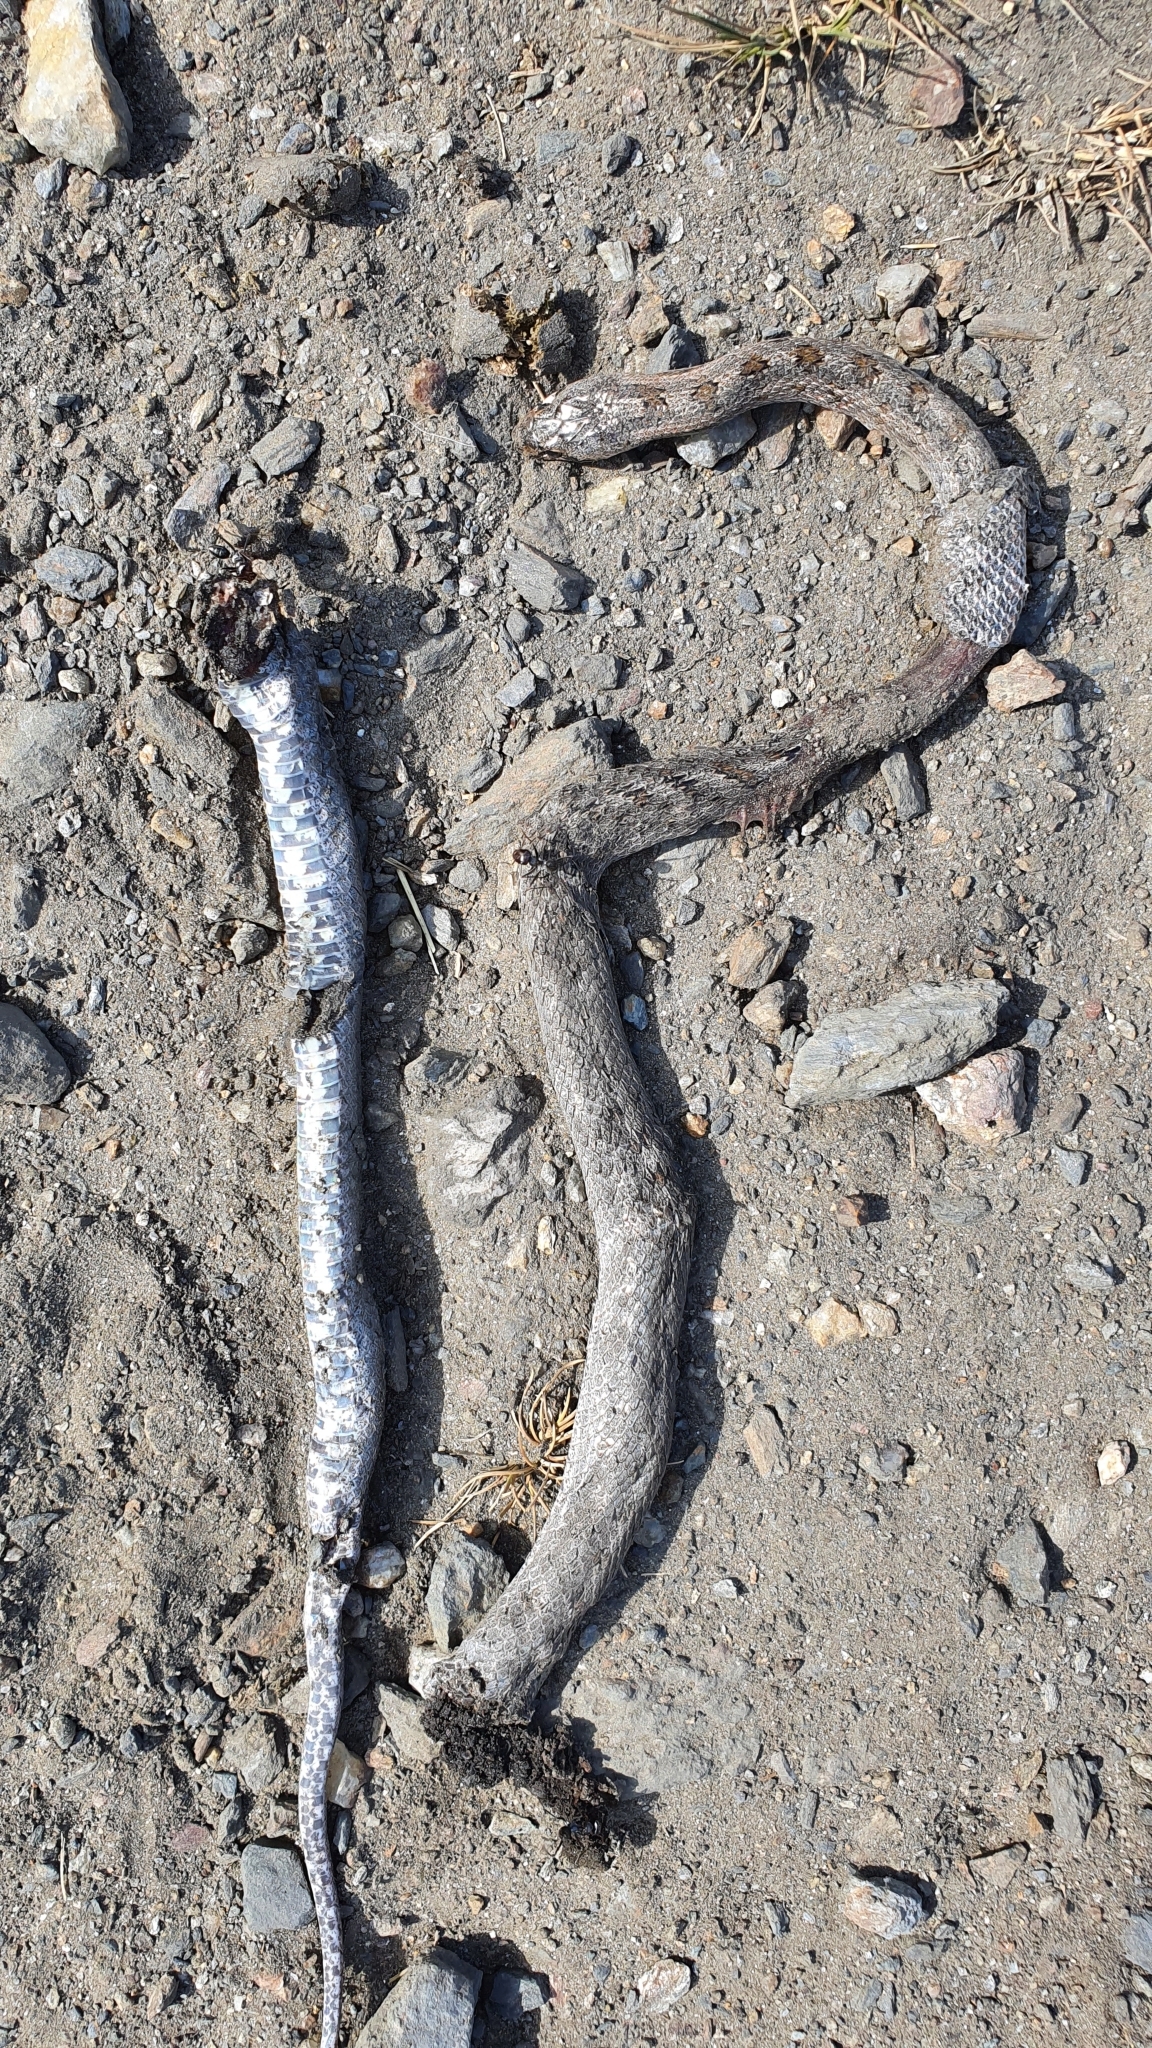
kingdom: Animalia
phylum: Chordata
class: Squamata
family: Colubridae
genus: Coronella
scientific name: Coronella girondica
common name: Southern smooth snake
